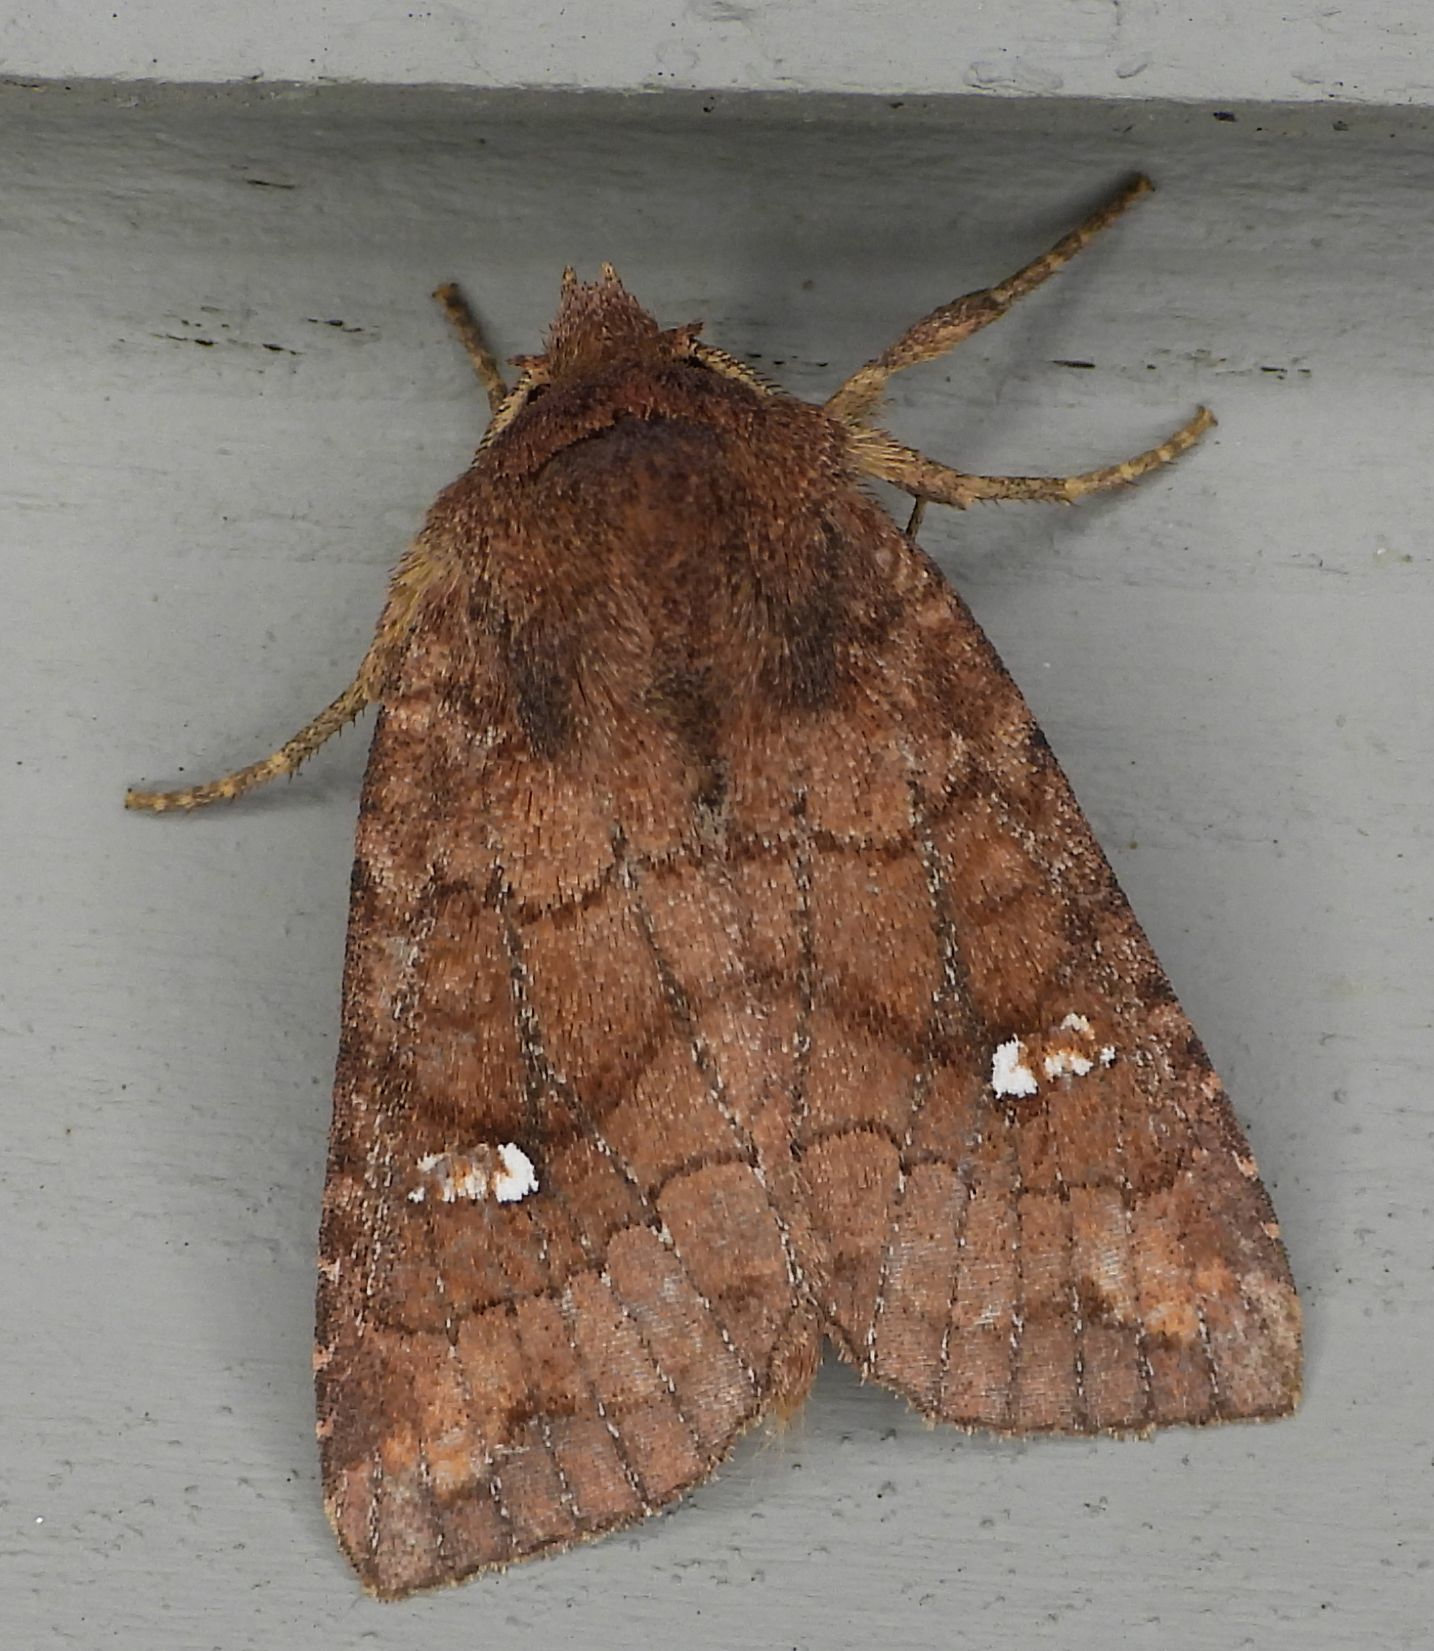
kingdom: Animalia
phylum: Arthropoda
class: Insecta
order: Lepidoptera
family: Noctuidae
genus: Tricholita
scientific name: Tricholita signata
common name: Signate quaker
